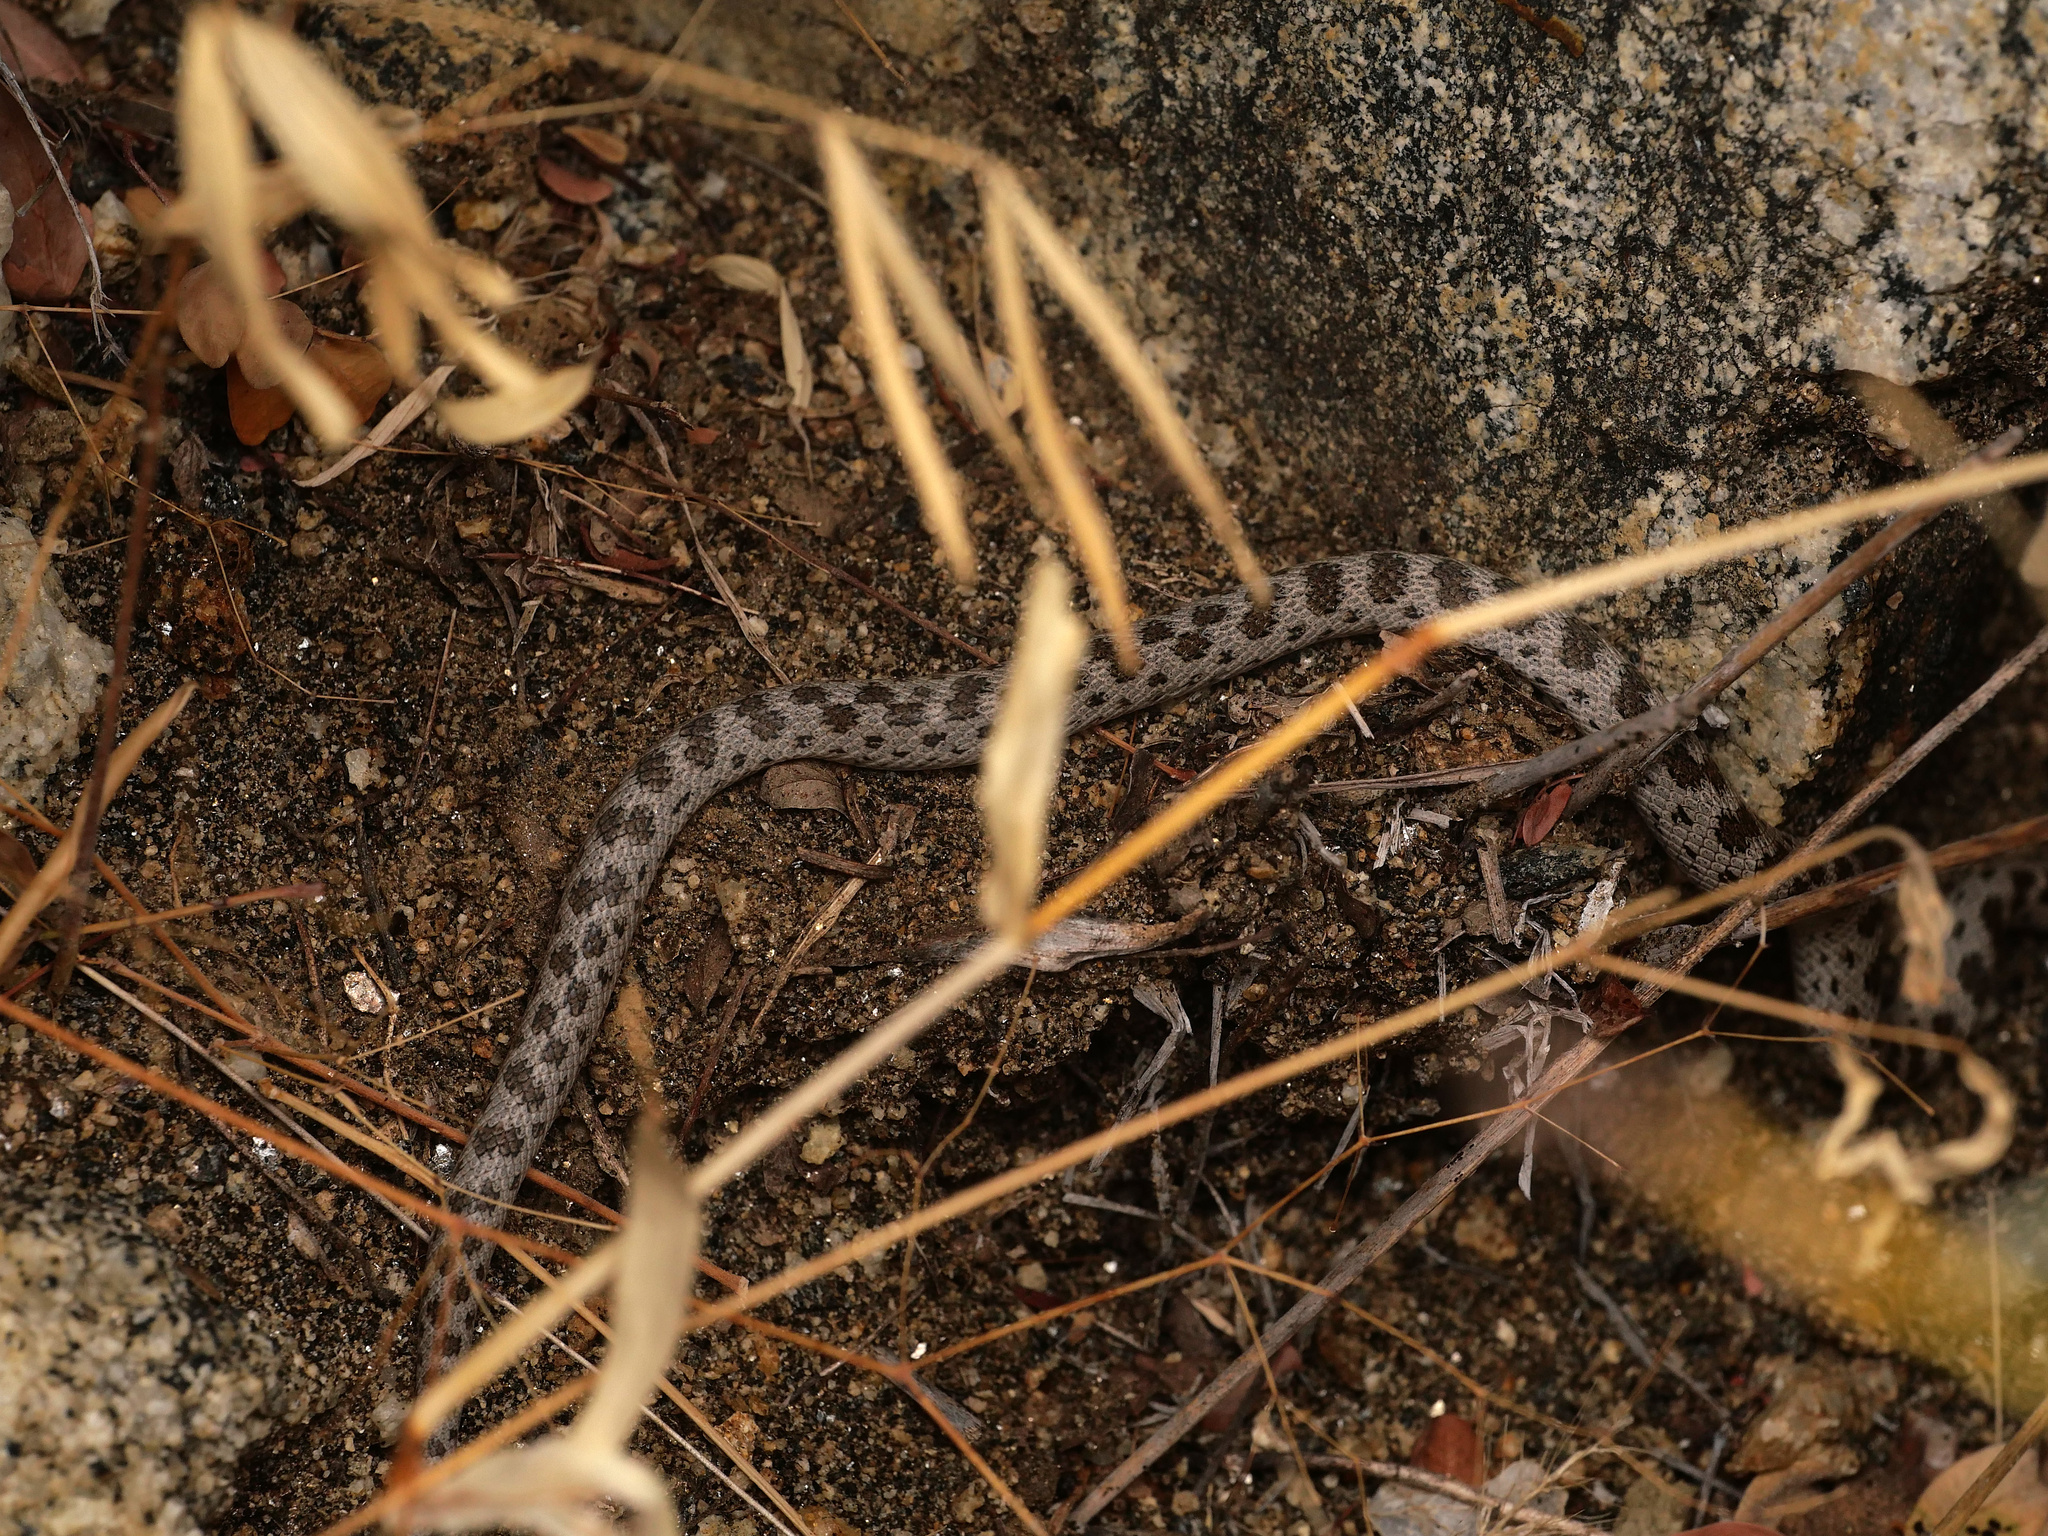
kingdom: Animalia
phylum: Chordata
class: Squamata
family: Colubridae
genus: Hypsiglena
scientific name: Hypsiglena ochrorhynchus
